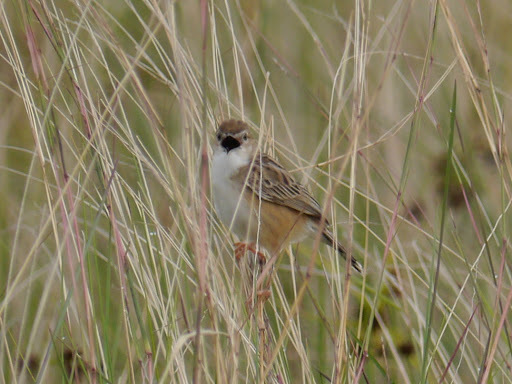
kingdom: Animalia
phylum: Chordata
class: Aves
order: Passeriformes
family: Cisticolidae
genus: Cisticola
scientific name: Cisticola brunnescens
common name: Pectoral-patch cisticola
